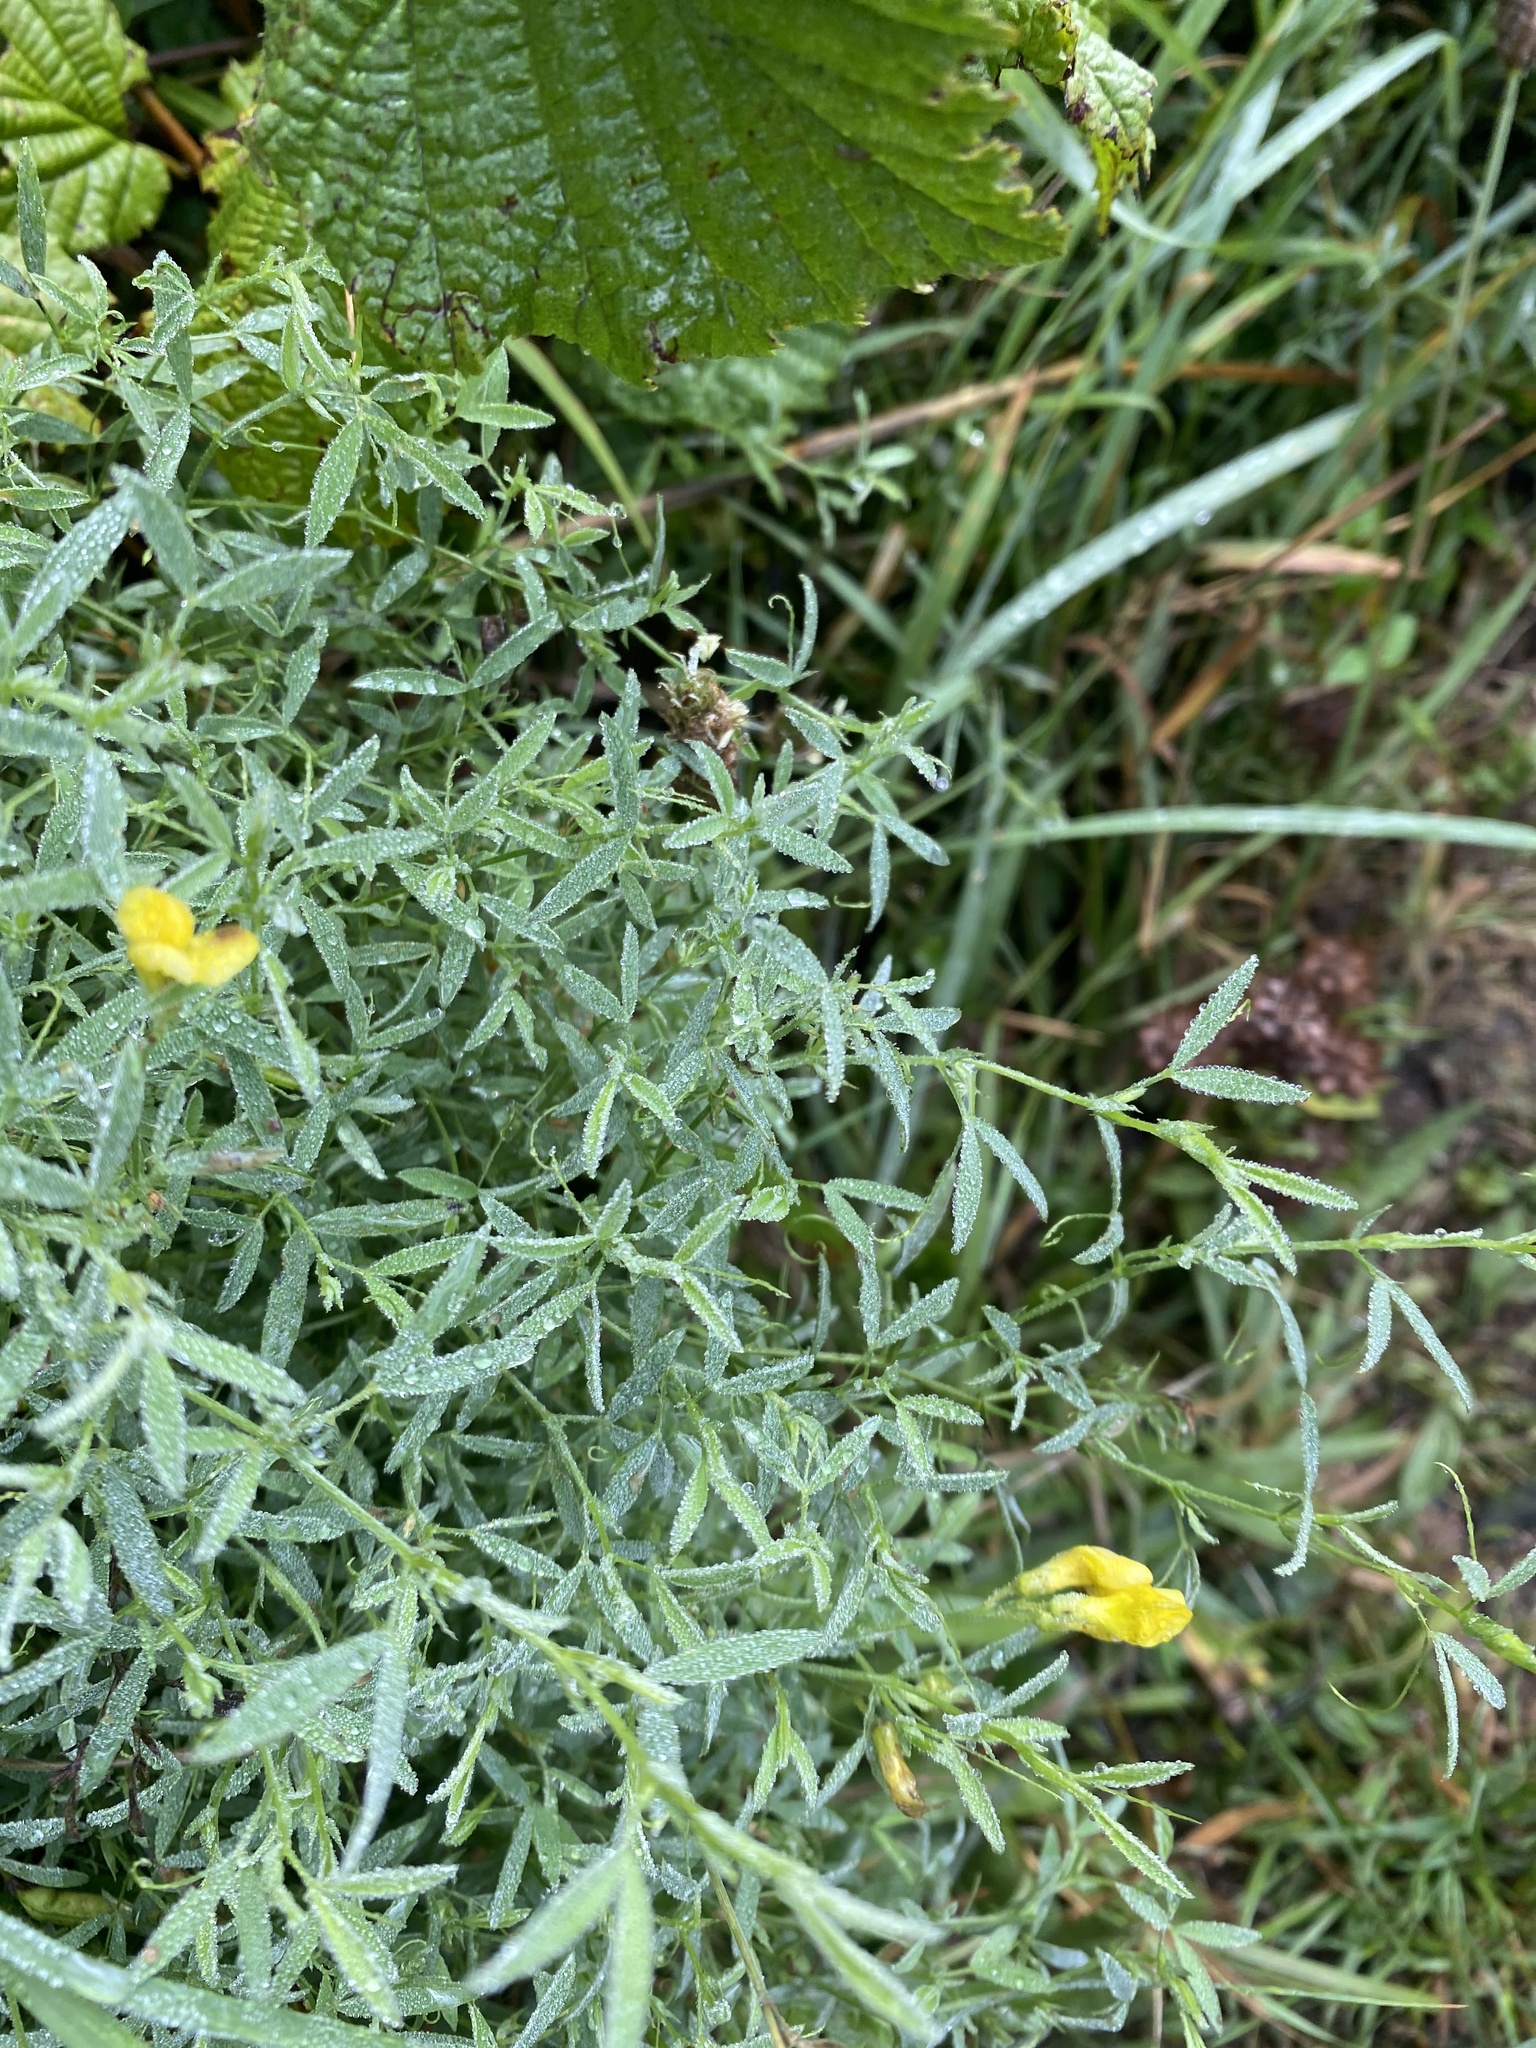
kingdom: Plantae
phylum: Tracheophyta
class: Magnoliopsida
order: Fabales
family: Fabaceae
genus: Lathyrus
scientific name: Lathyrus pratensis
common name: Meadow vetchling
